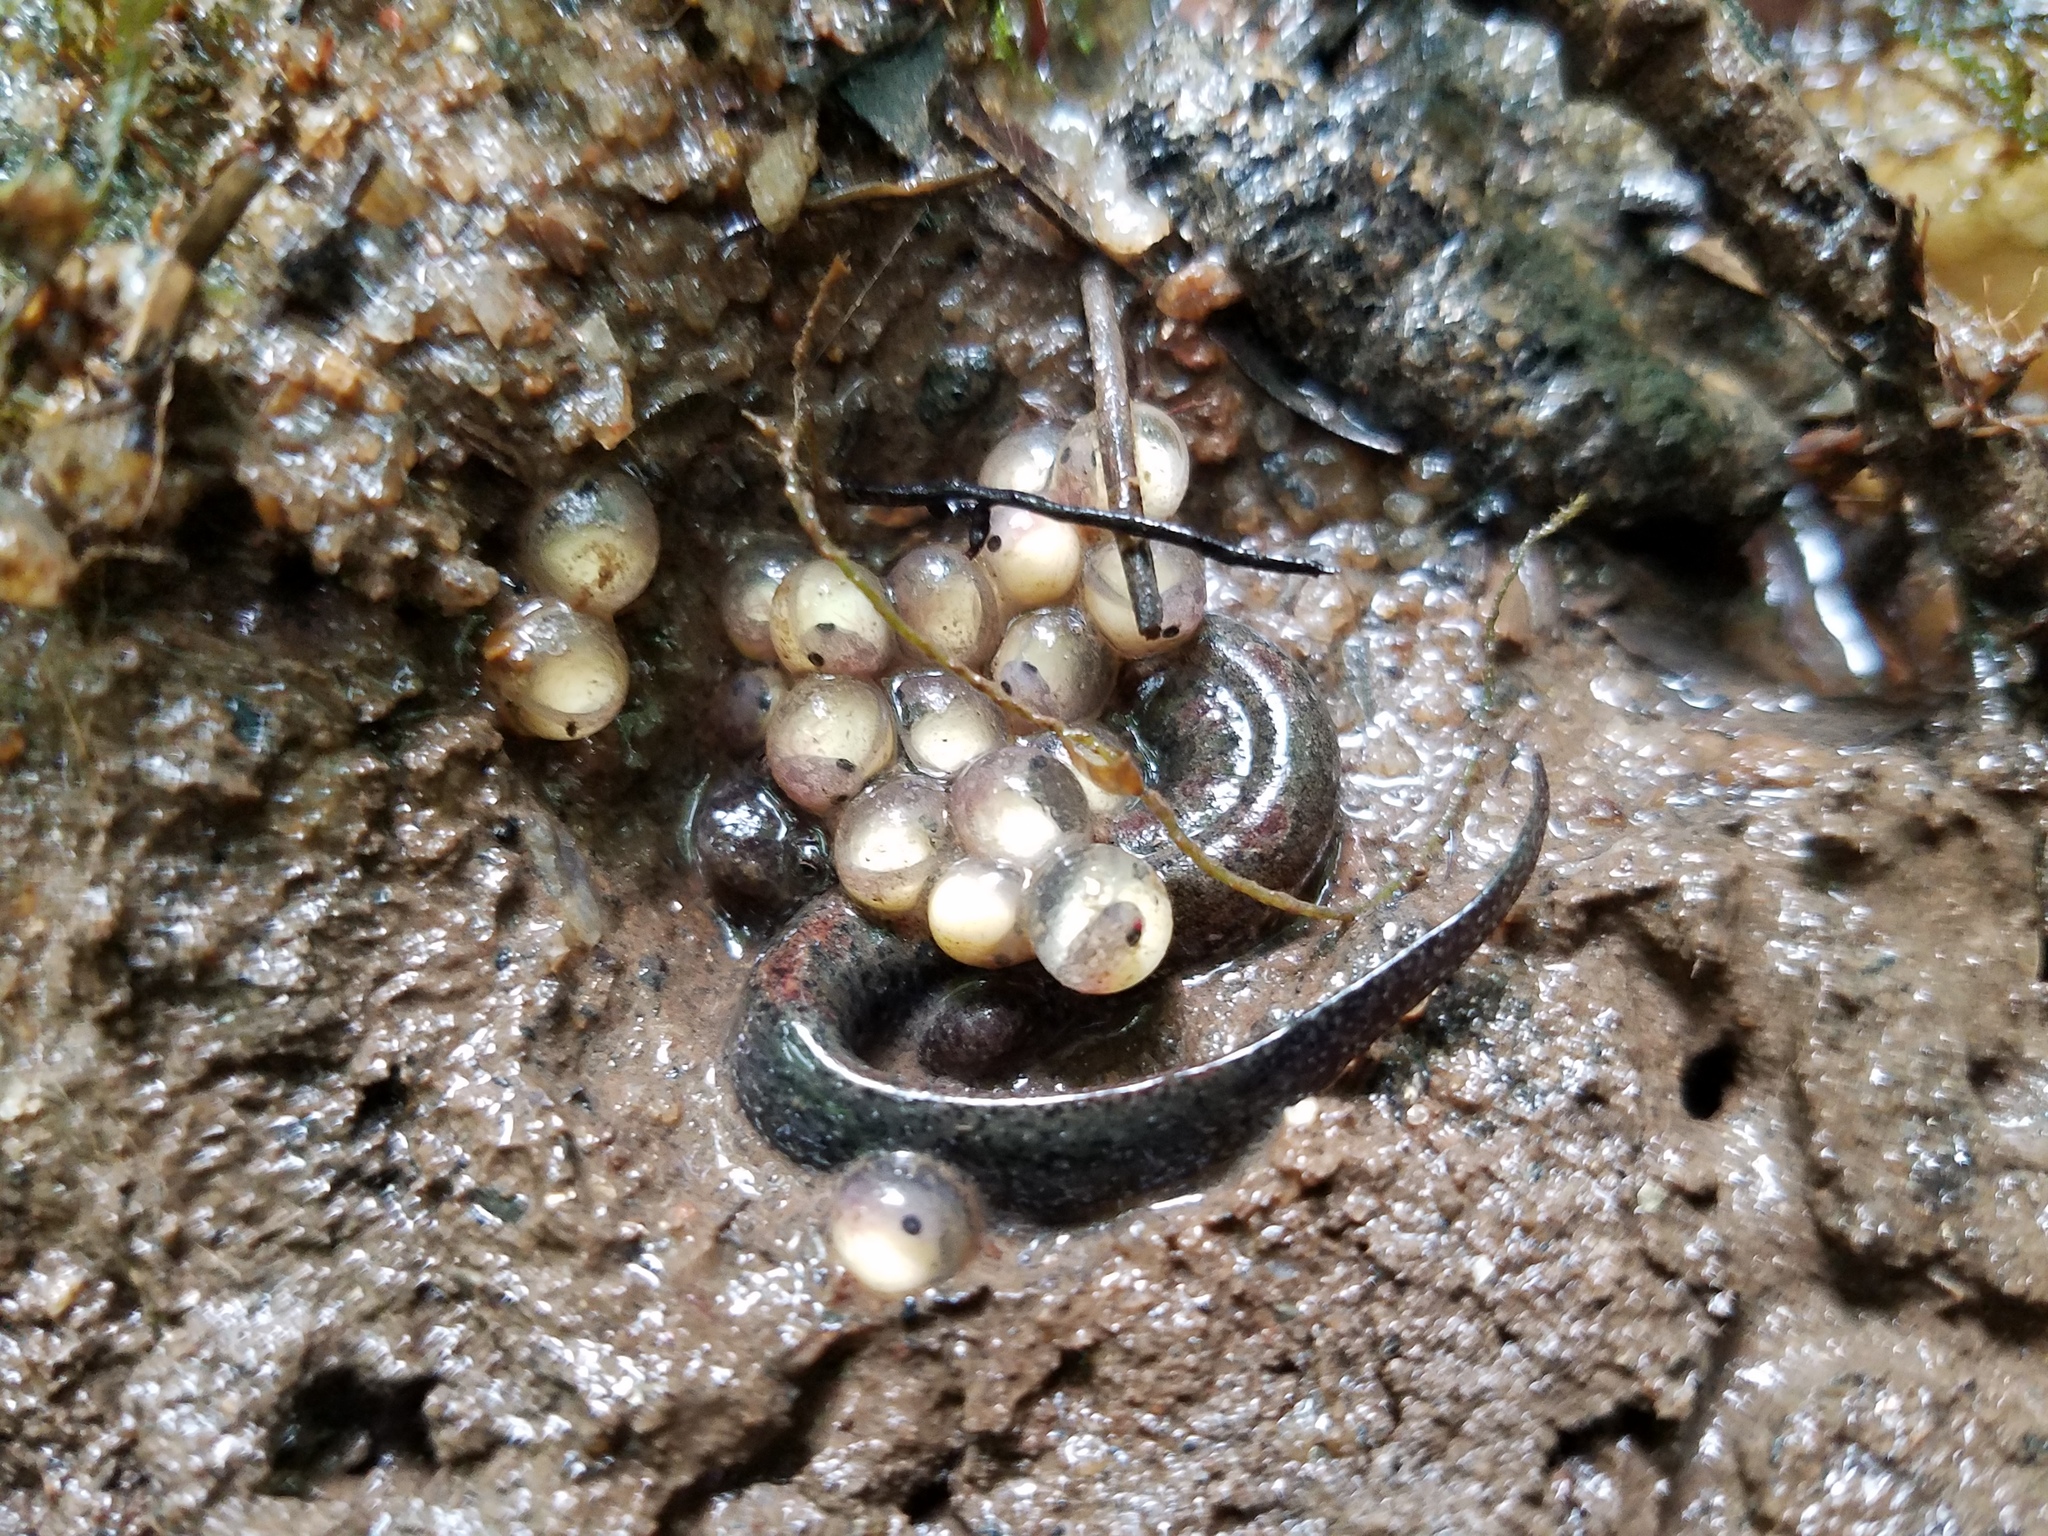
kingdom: Animalia
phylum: Chordata
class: Amphibia
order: Caudata
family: Plethodontidae
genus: Desmognathus
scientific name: Desmognathus
